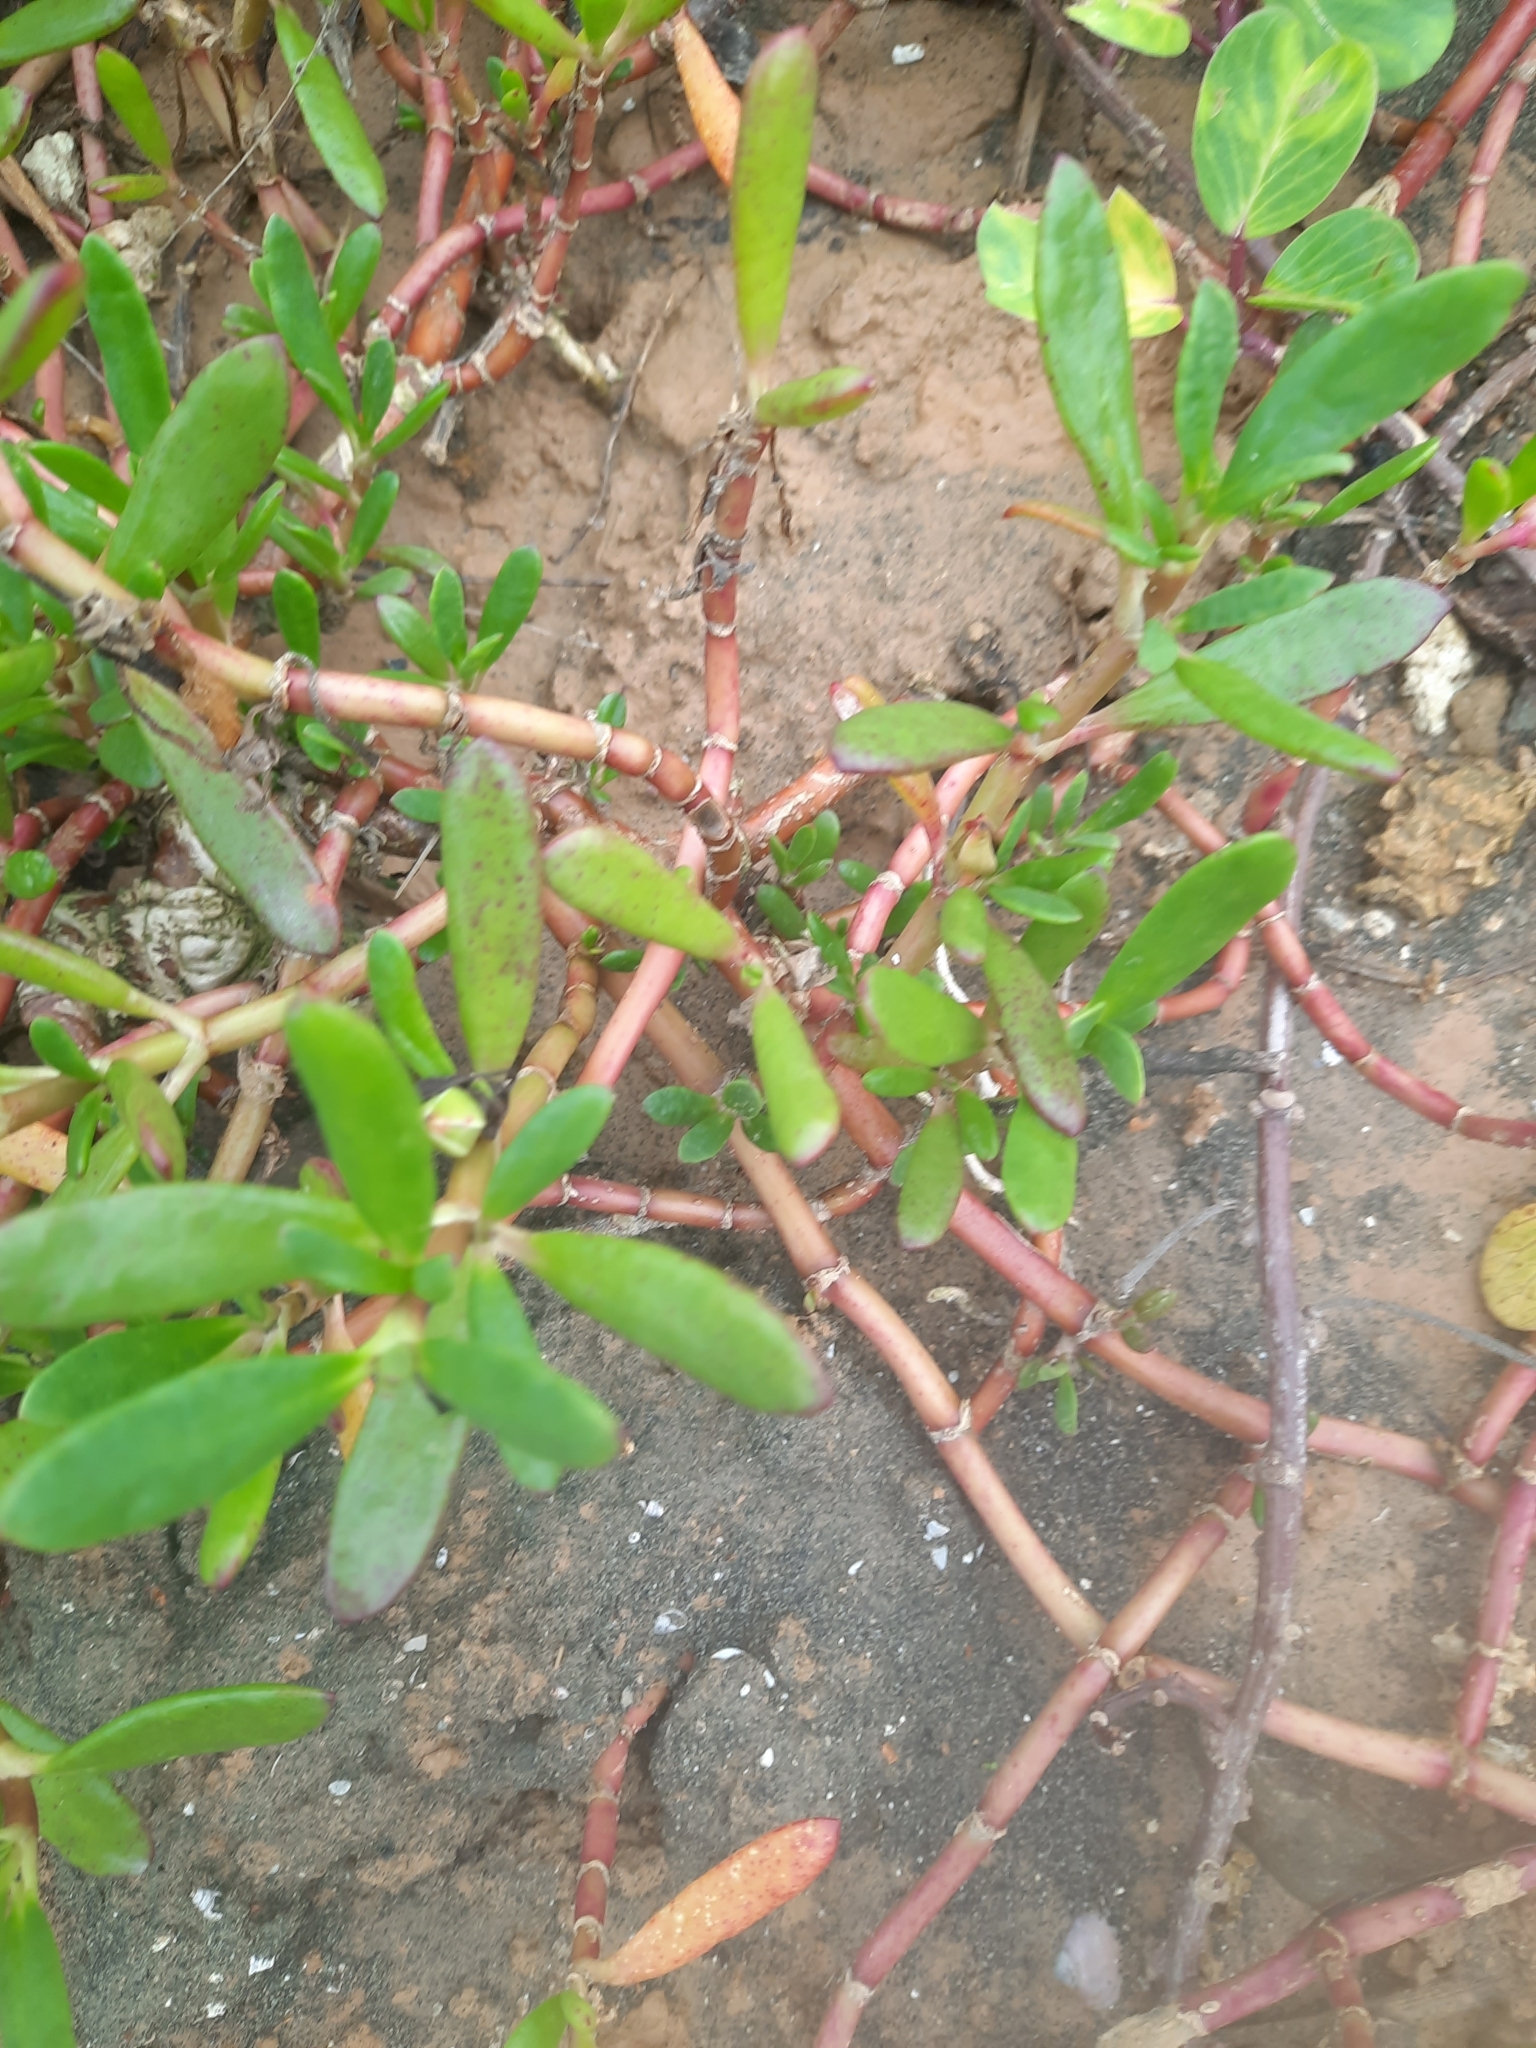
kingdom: Plantae
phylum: Tracheophyta
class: Magnoliopsida
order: Caryophyllales
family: Aizoaceae
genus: Sesuvium
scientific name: Sesuvium portulacastrum
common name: Sea-purslane
